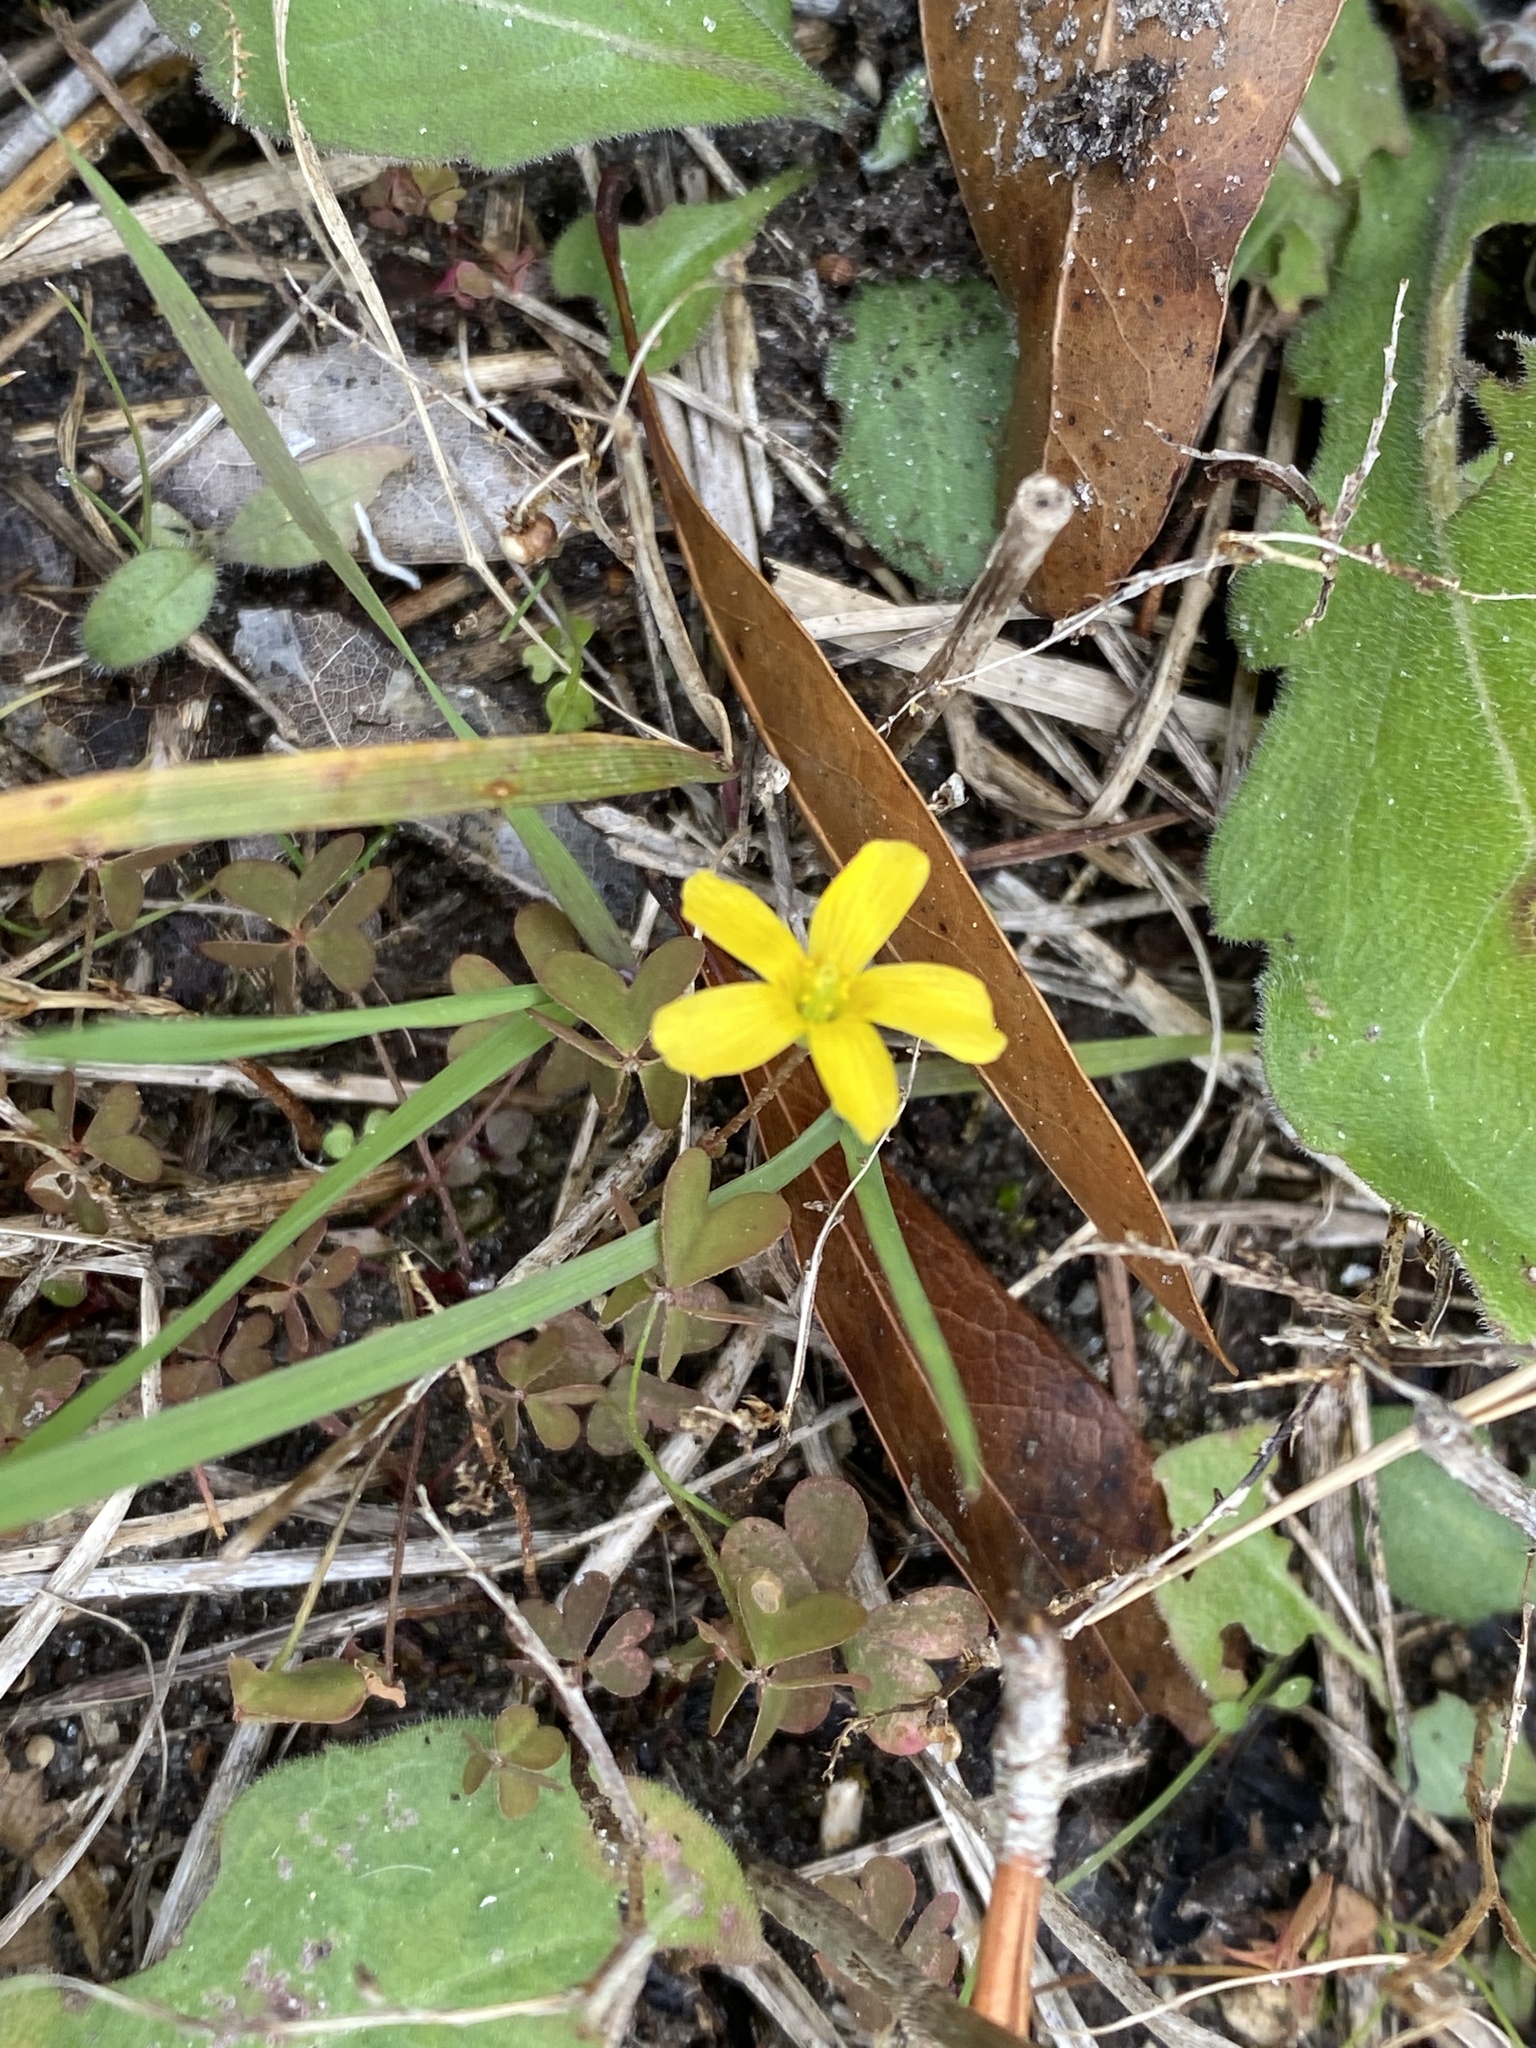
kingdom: Plantae
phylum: Tracheophyta
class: Magnoliopsida
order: Oxalidales
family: Oxalidaceae
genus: Oxalis
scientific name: Oxalis corniculata
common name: Procumbent yellow-sorrel
